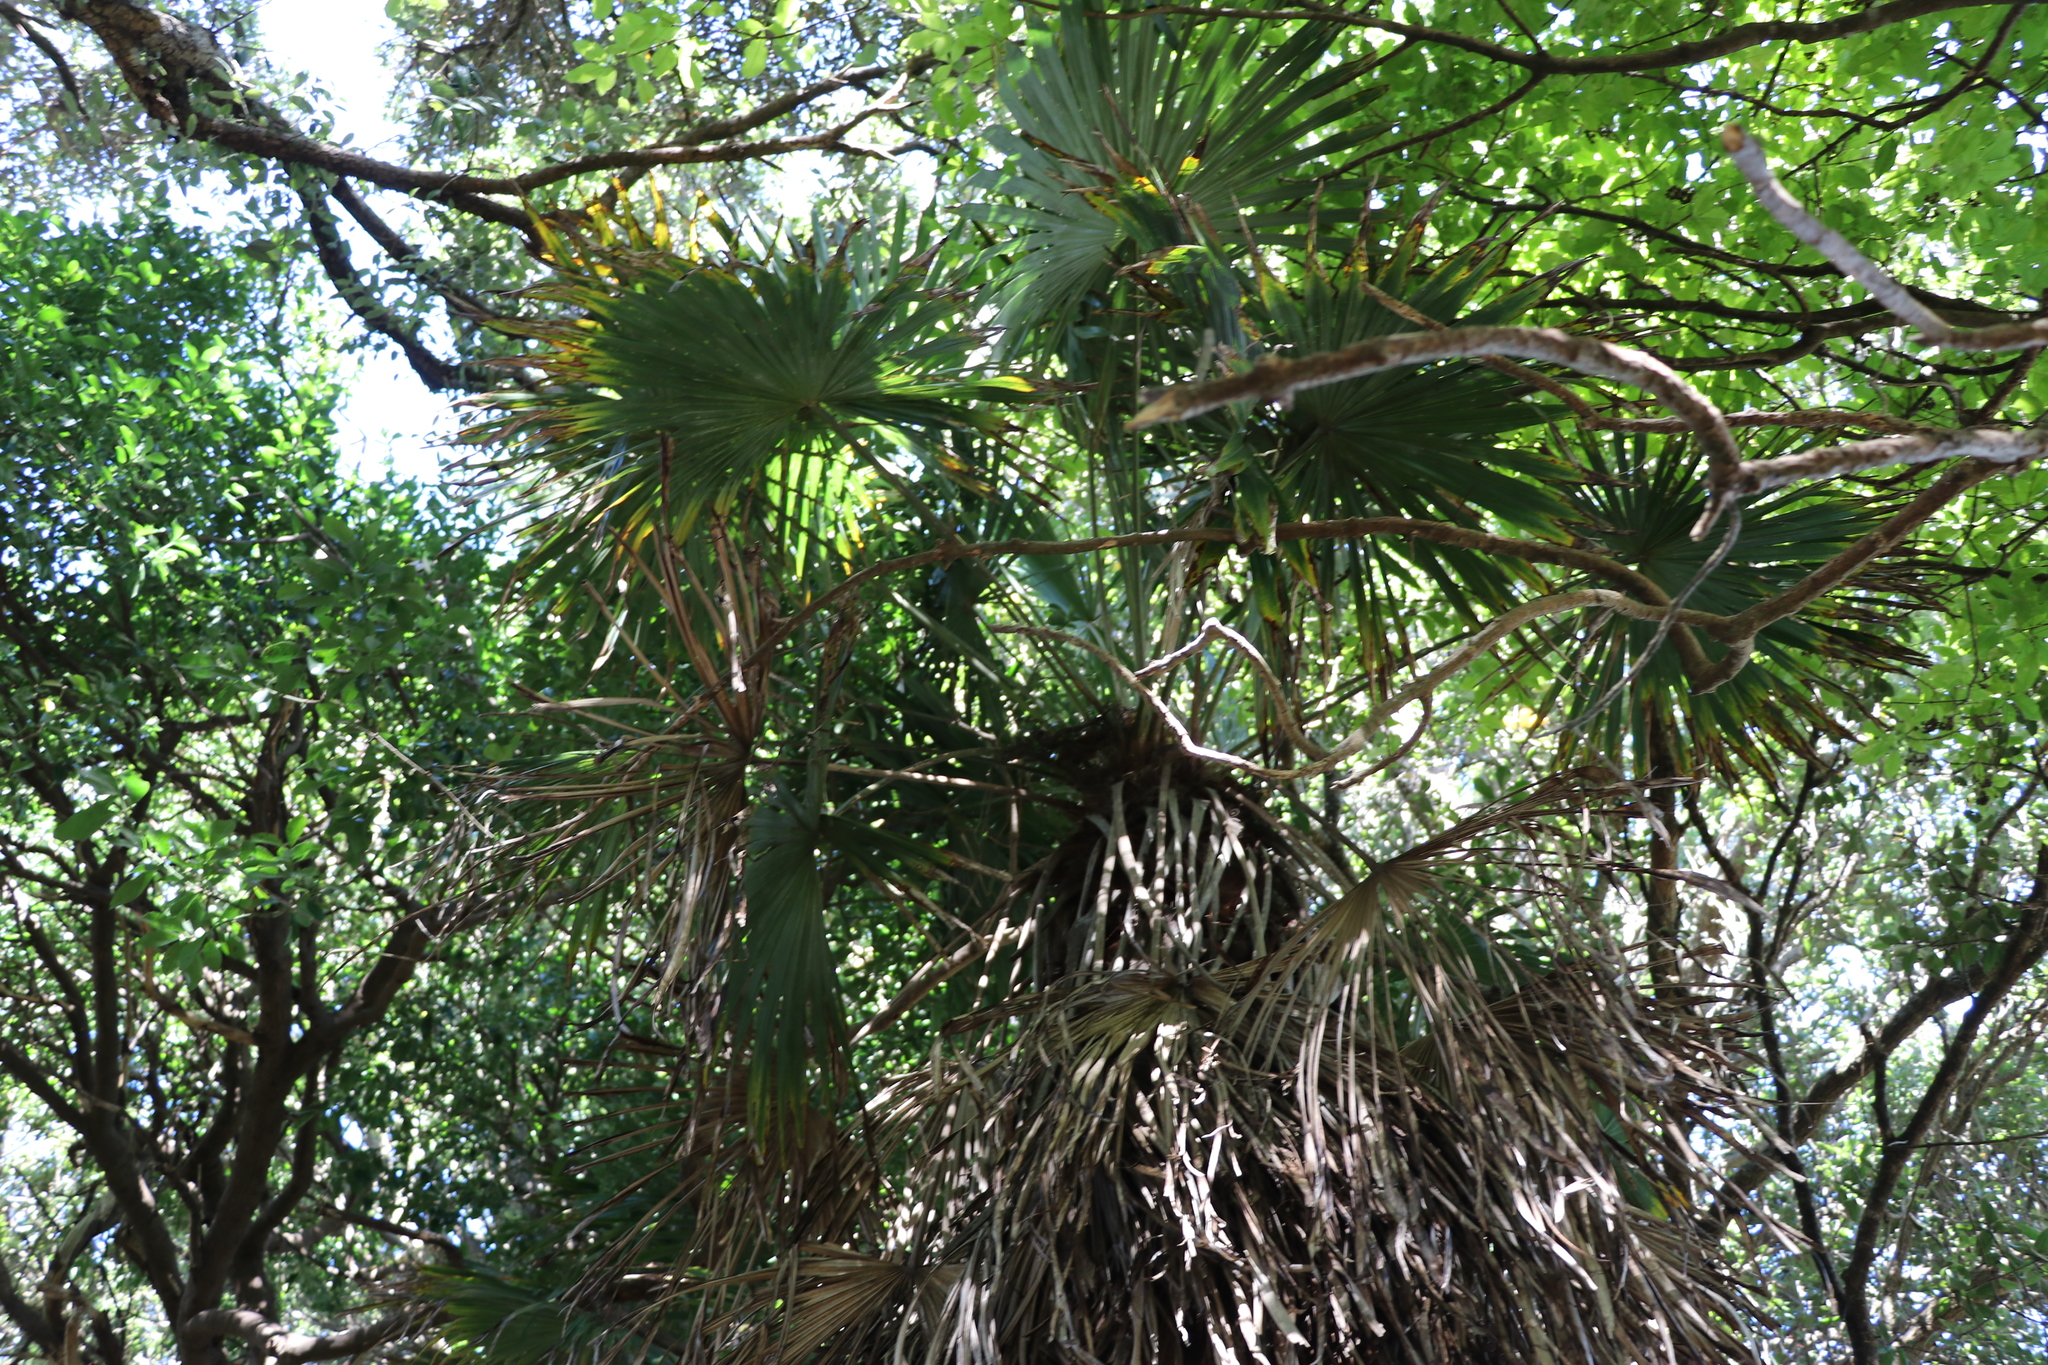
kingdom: Plantae
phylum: Tracheophyta
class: Liliopsida
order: Arecales
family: Arecaceae
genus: Trachycarpus
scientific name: Trachycarpus fortunei
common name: Chusan palm
